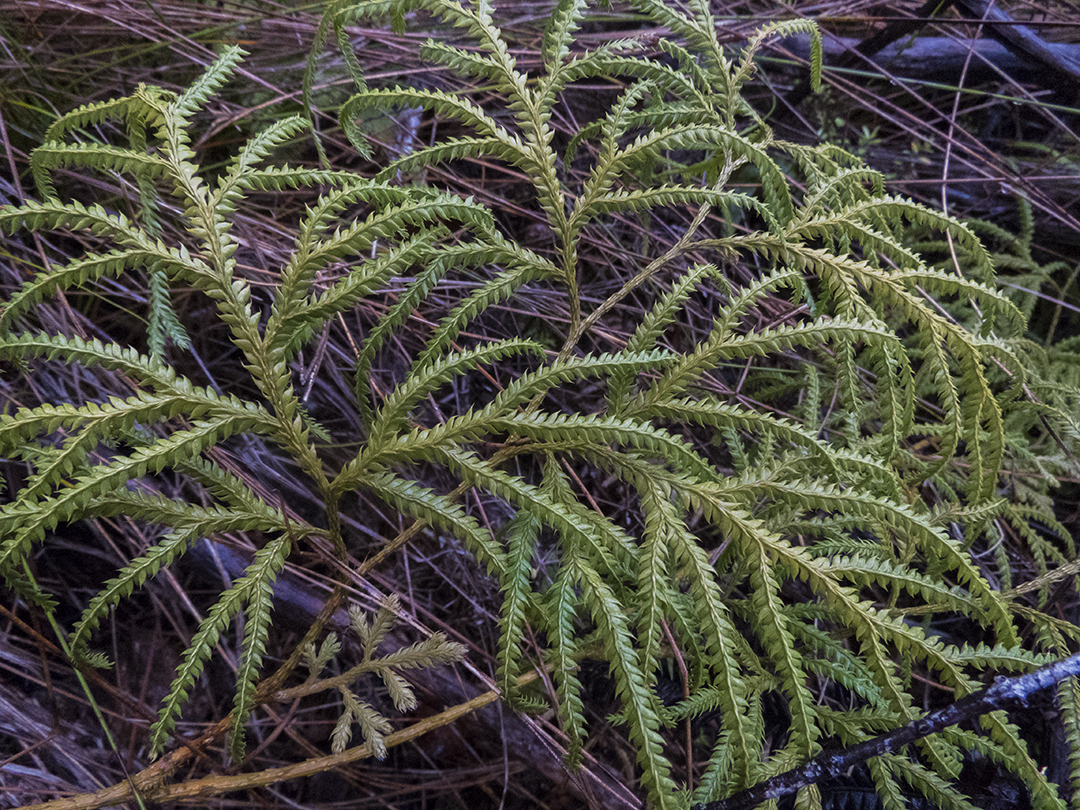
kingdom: Plantae
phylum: Tracheophyta
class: Lycopodiopsida
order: Lycopodiales
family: Lycopodiaceae
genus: Lycopodium
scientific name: Lycopodium volubile
